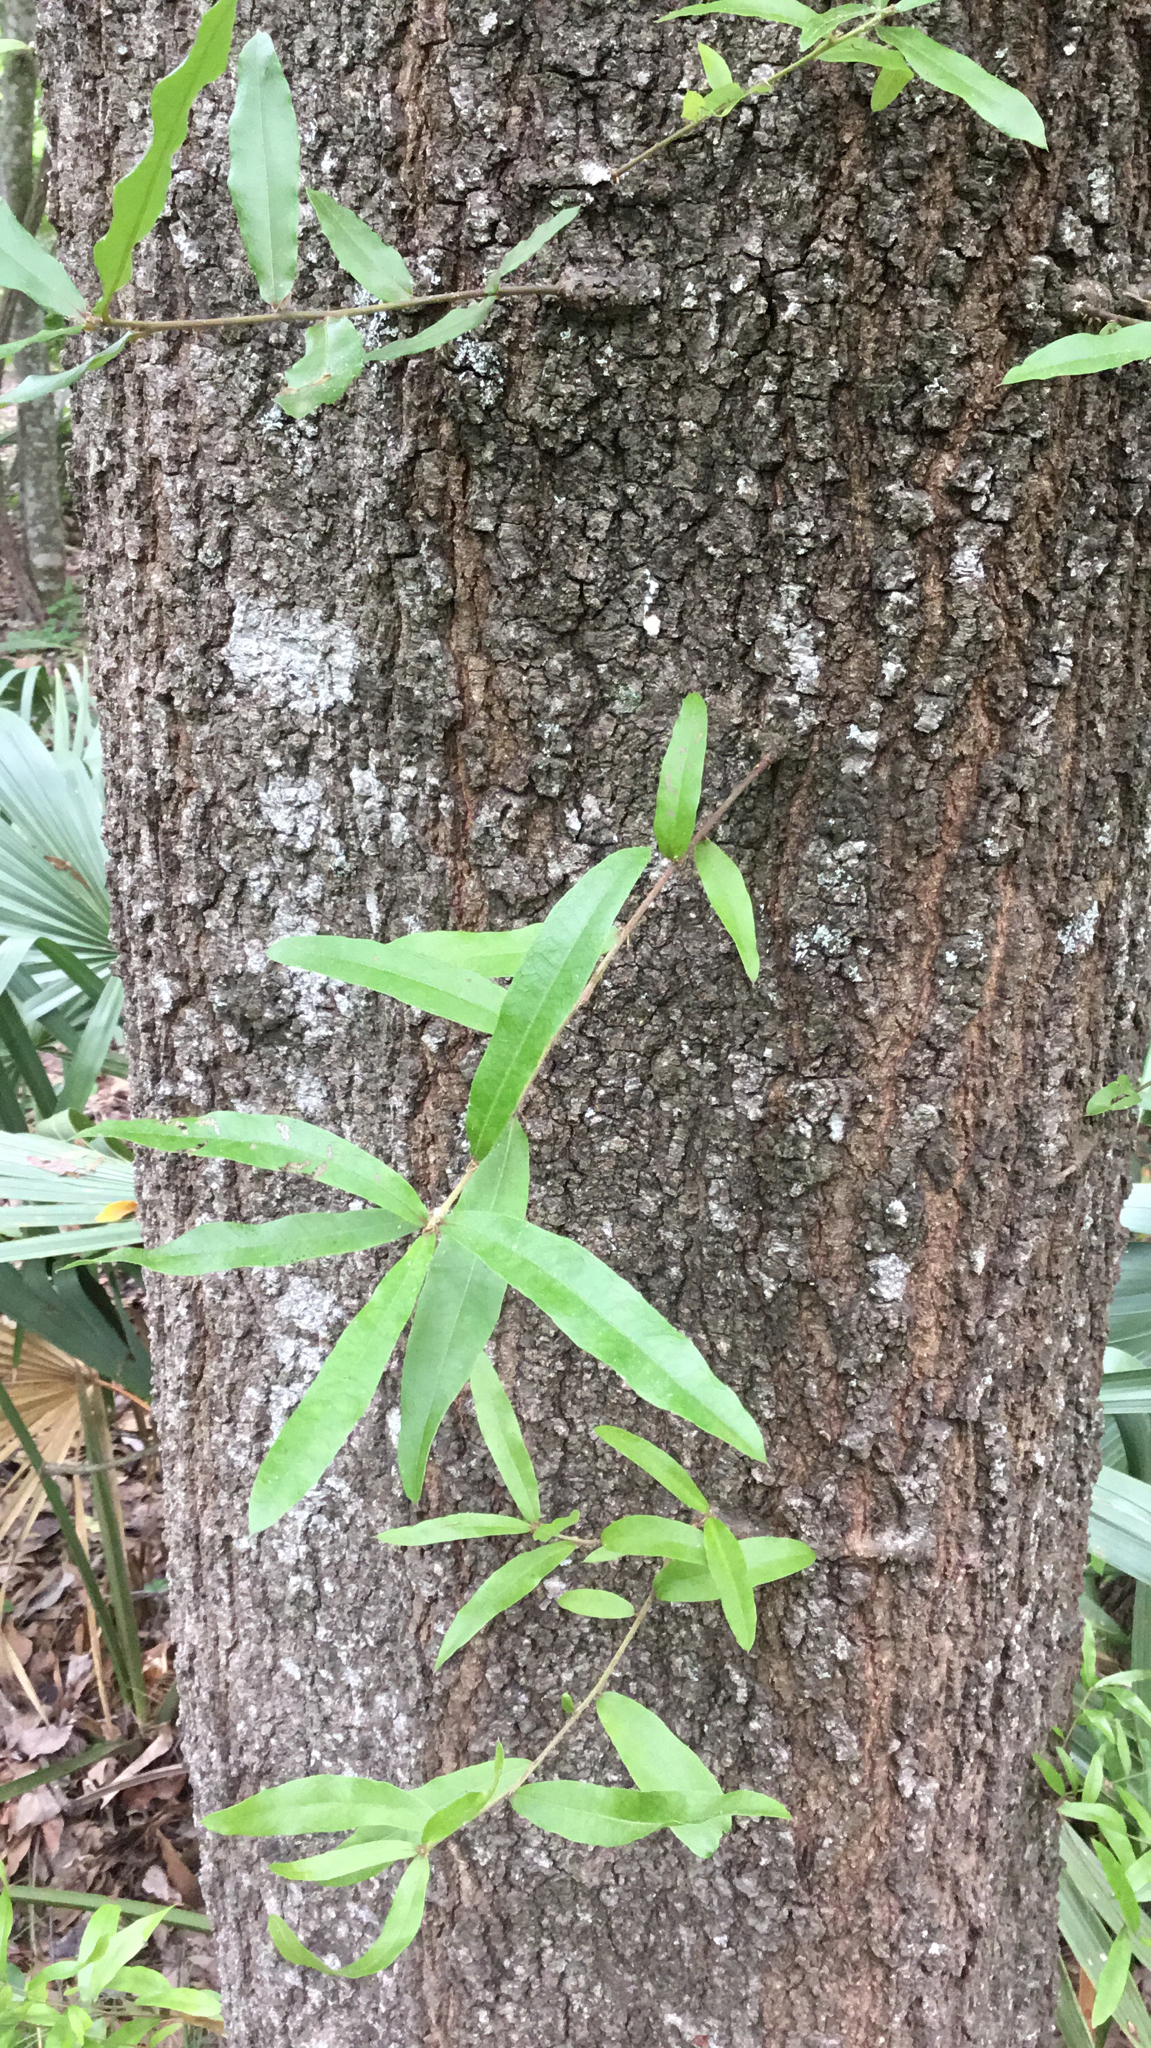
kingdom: Plantae
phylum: Tracheophyta
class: Magnoliopsida
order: Fagales
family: Fagaceae
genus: Quercus
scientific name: Quercus phellos
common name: Willow oak
